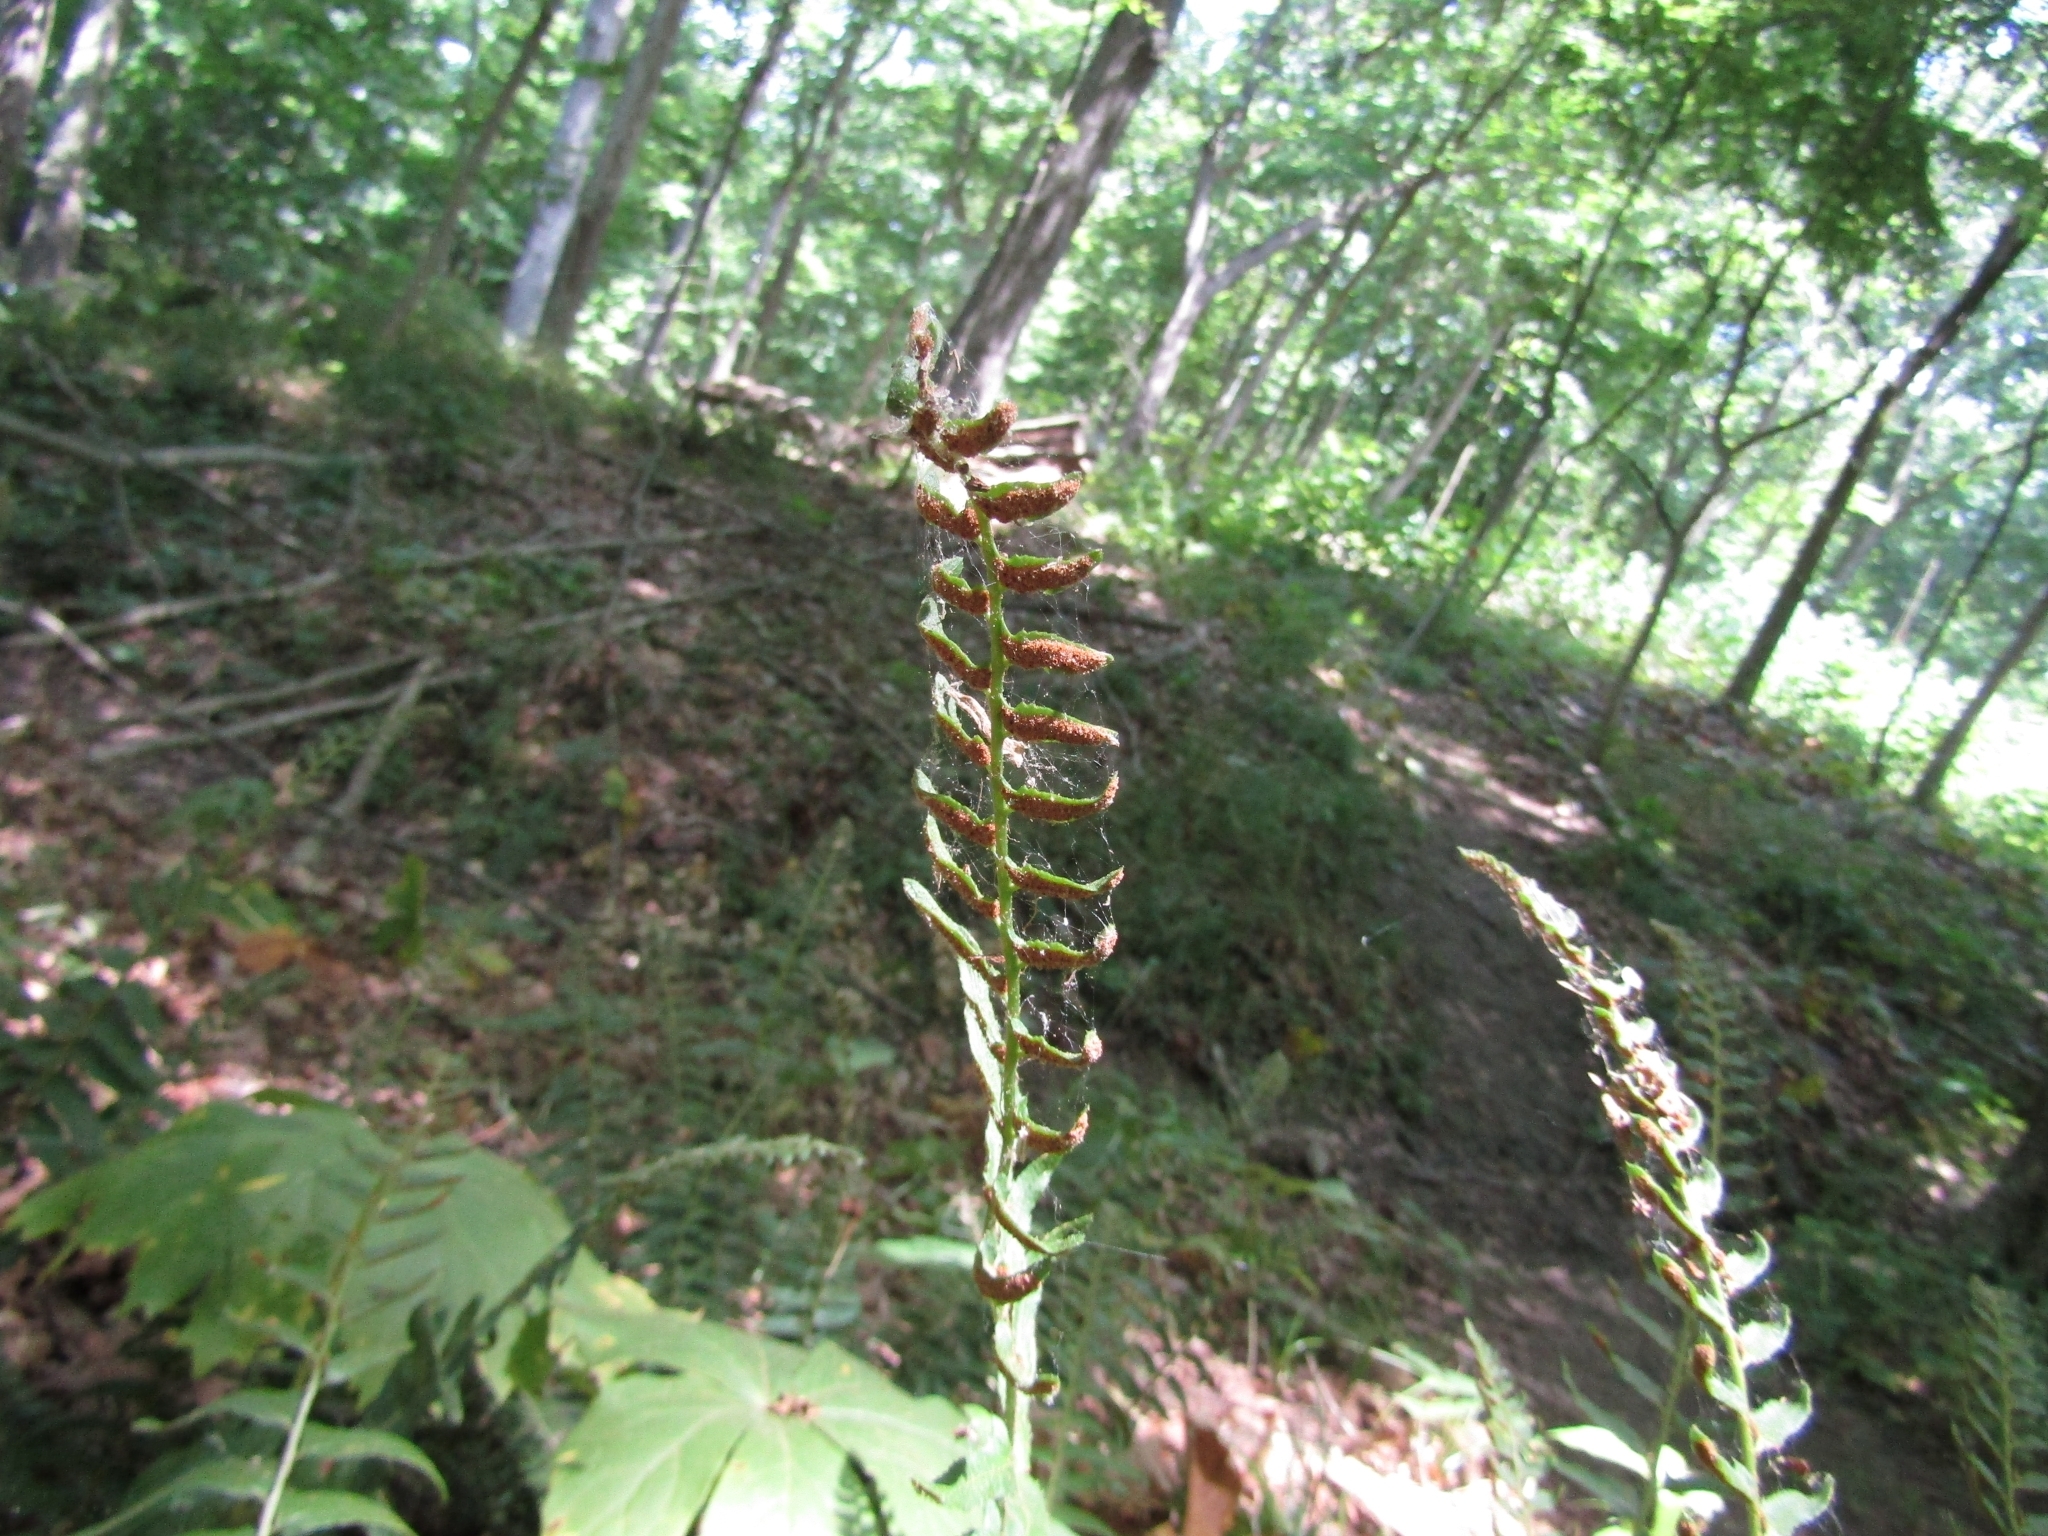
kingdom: Plantae
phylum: Tracheophyta
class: Polypodiopsida
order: Polypodiales
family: Dryopteridaceae
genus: Polystichum
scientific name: Polystichum acrostichoides
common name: Christmas fern
